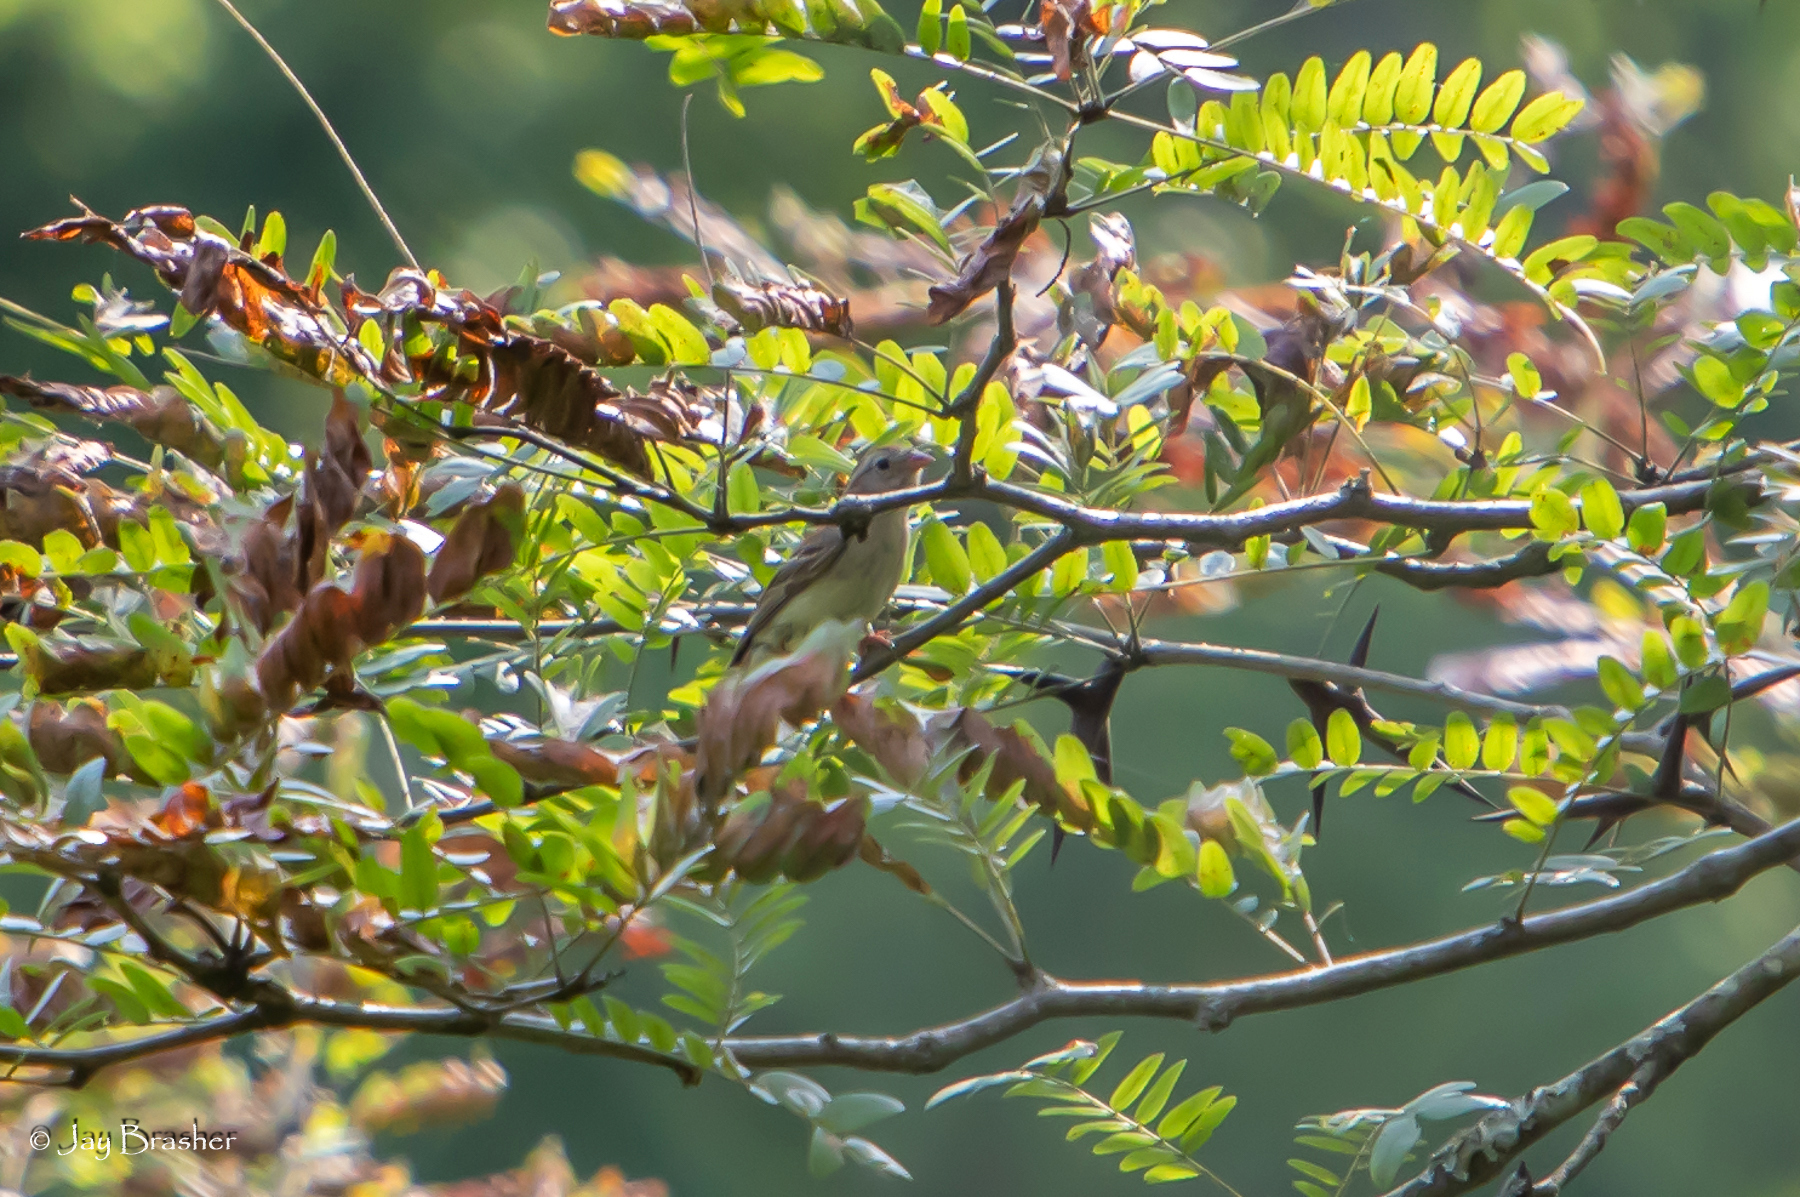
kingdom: Animalia
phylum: Chordata
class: Aves
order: Passeriformes
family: Passerellidae
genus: Spizella
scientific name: Spizella pusilla
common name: Field sparrow
